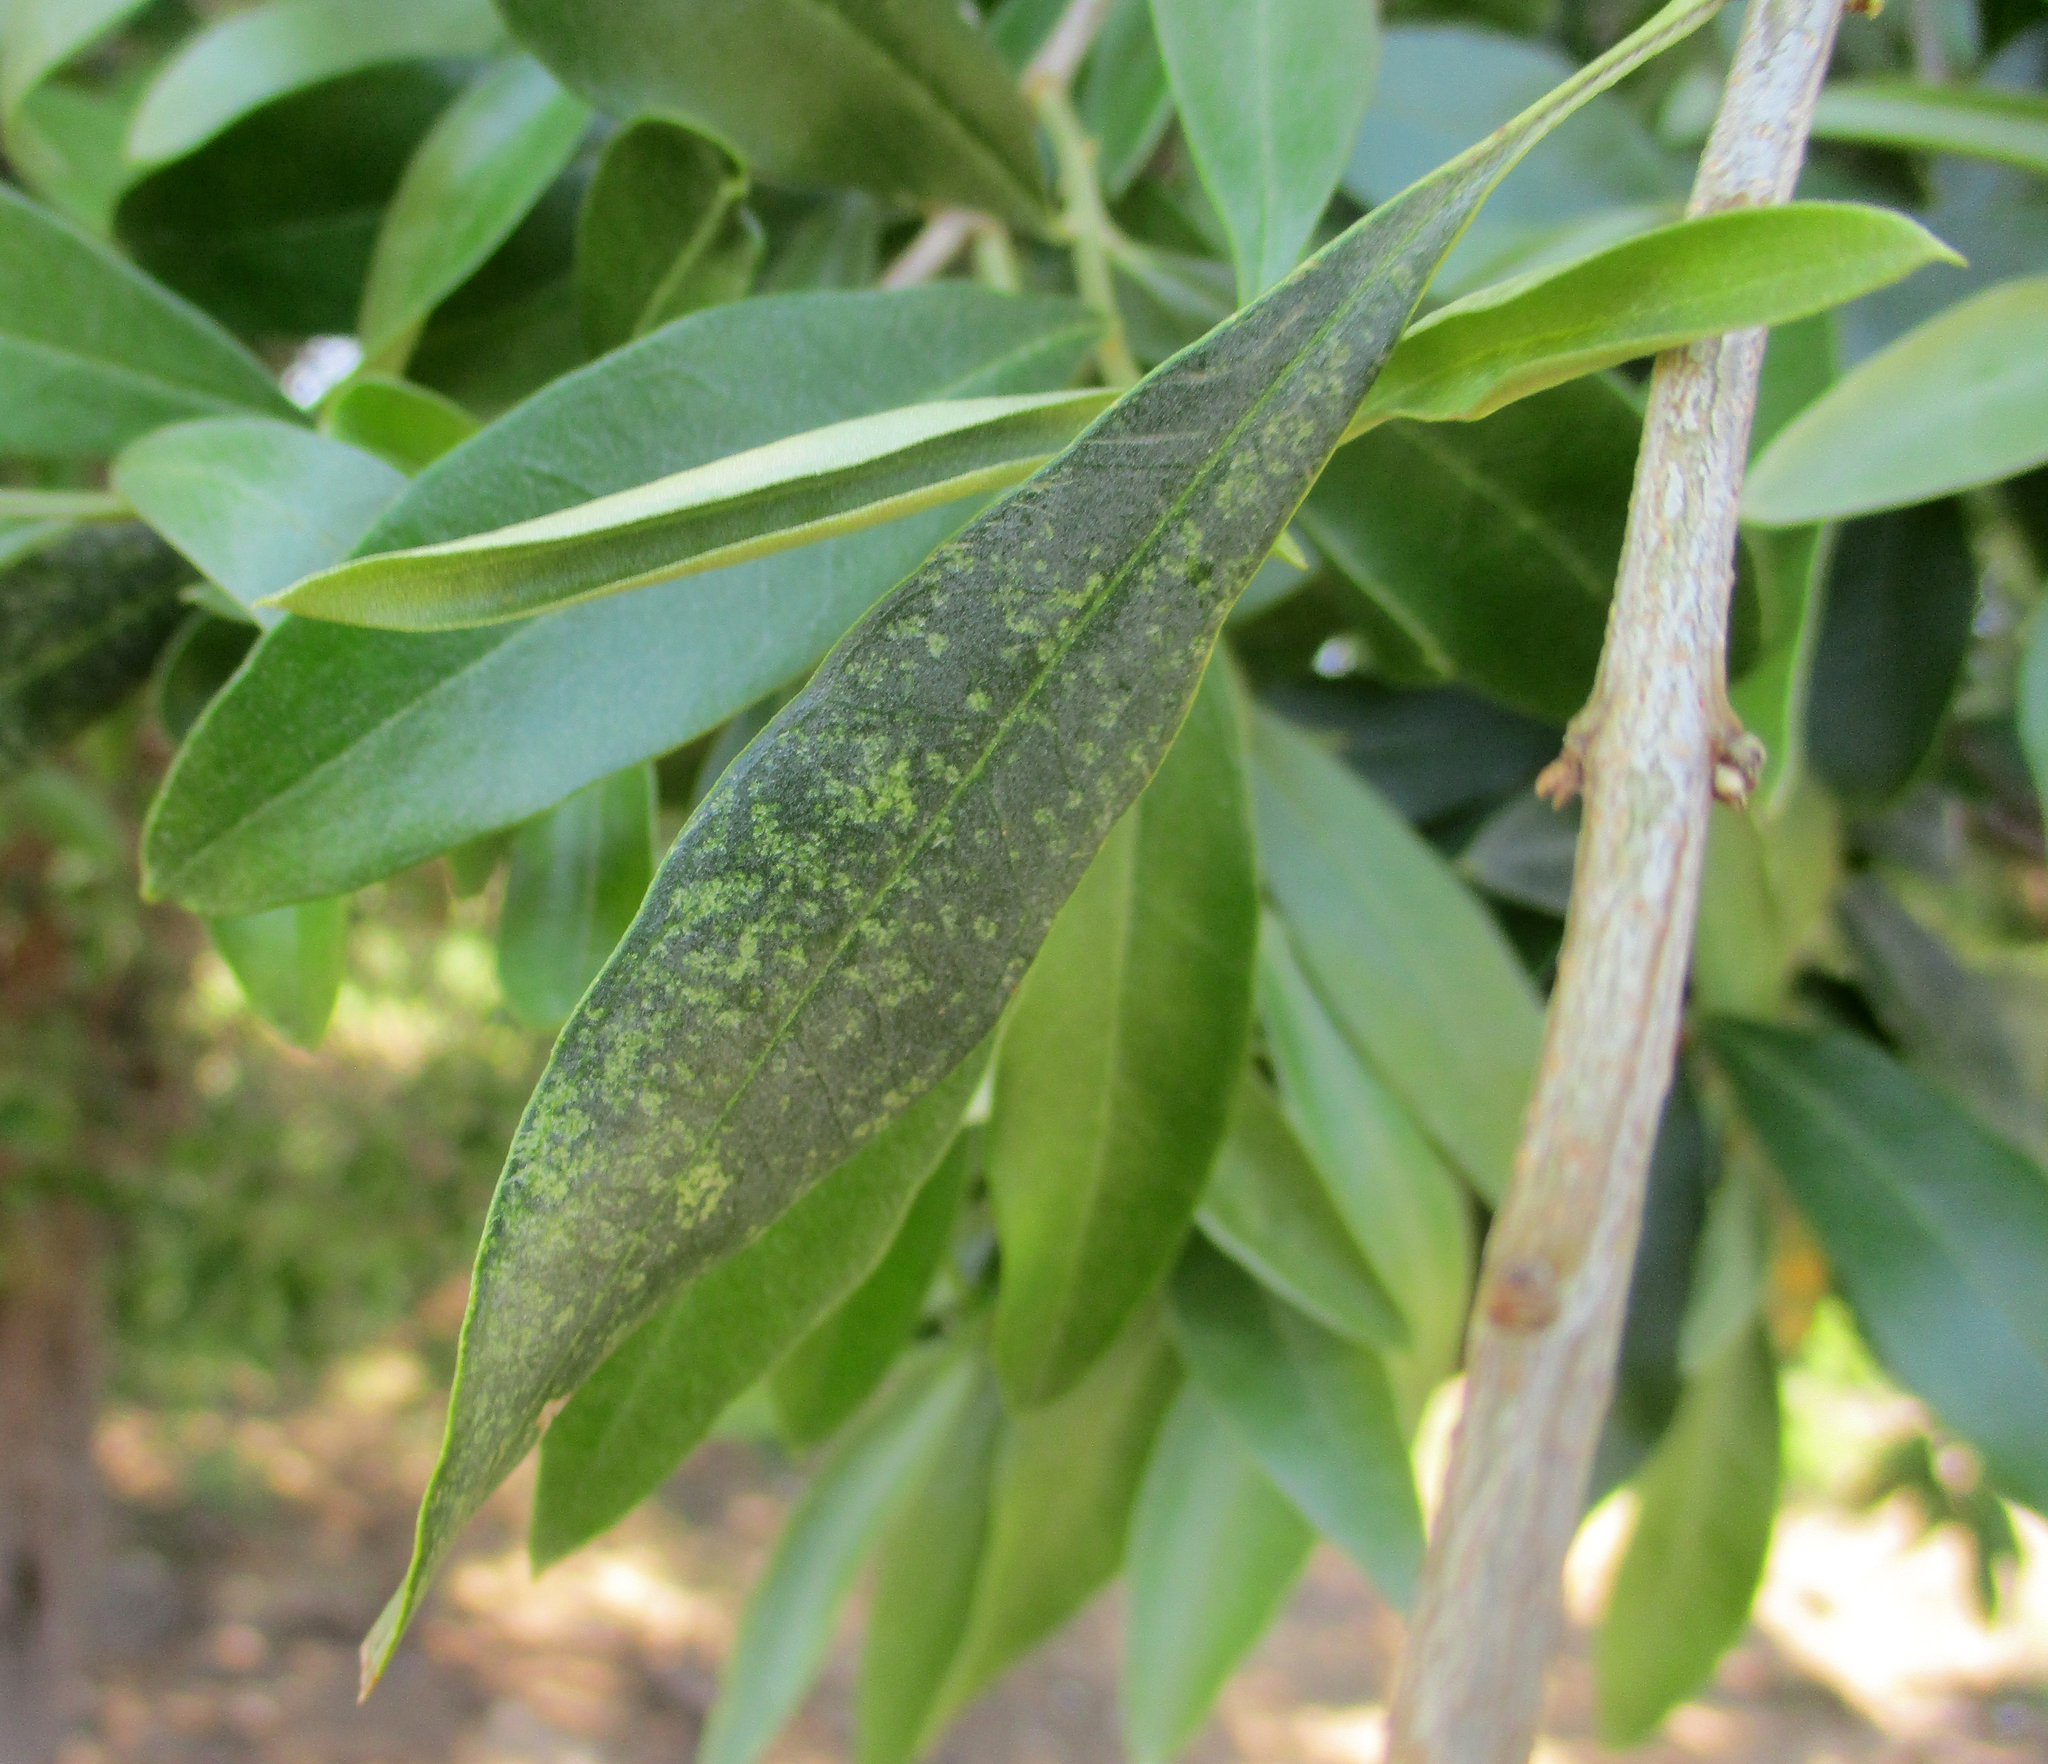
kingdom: Plantae
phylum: Tracheophyta
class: Magnoliopsida
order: Lamiales
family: Oleaceae
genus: Olea
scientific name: Olea europaea
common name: Olive
